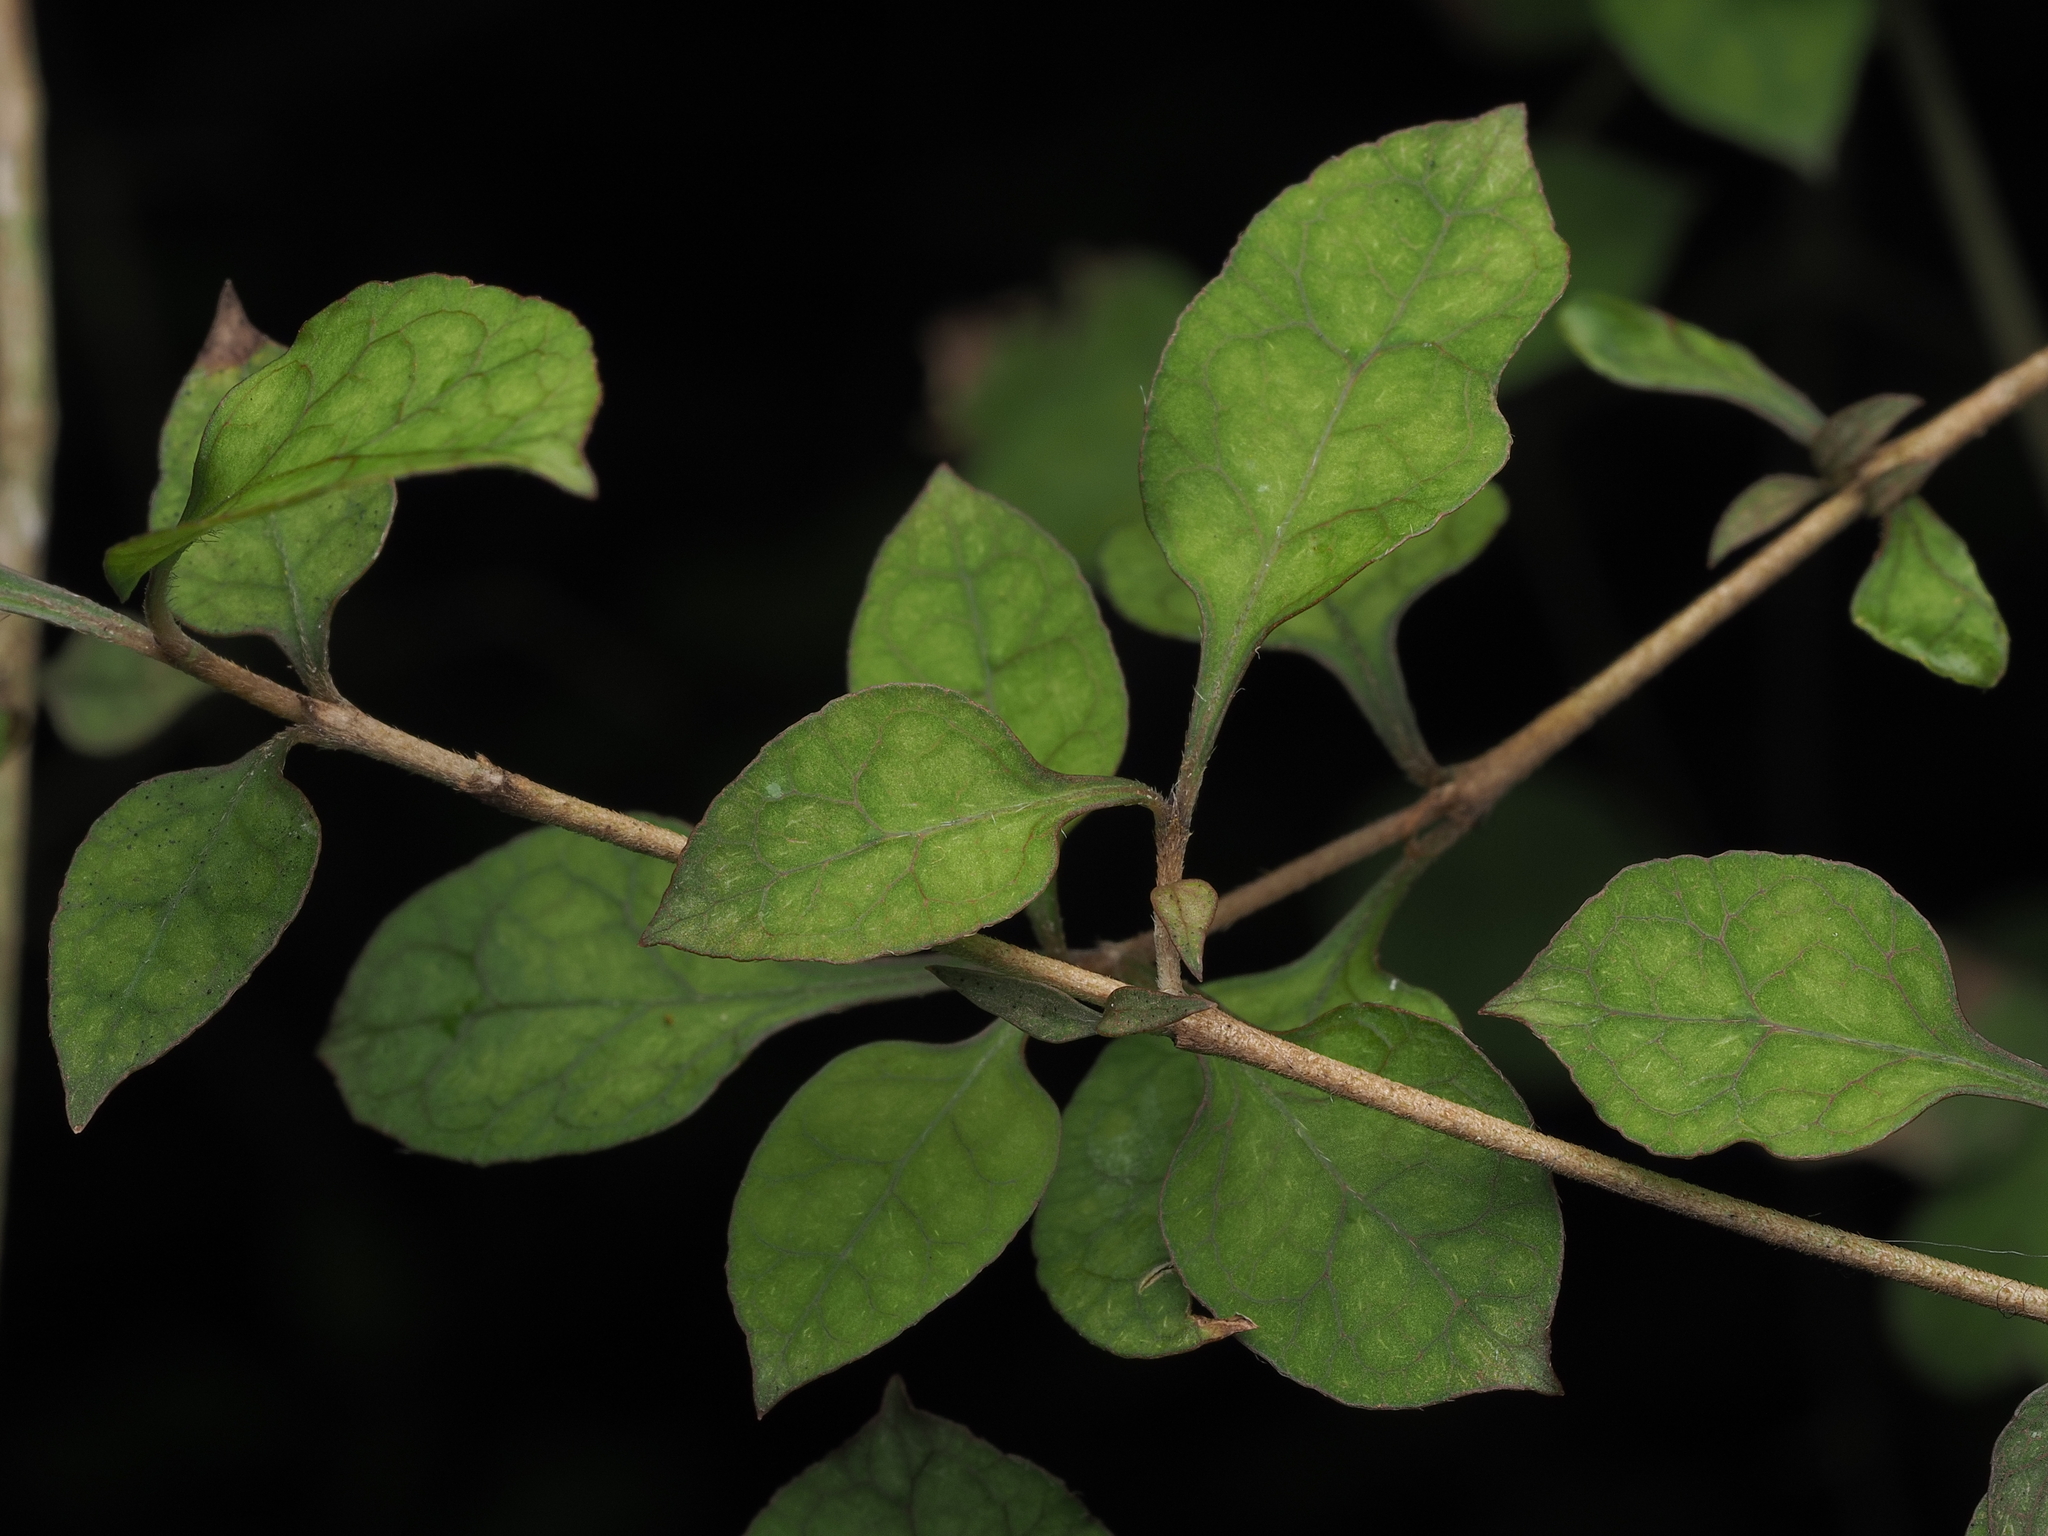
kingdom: Plantae
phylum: Tracheophyta
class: Magnoliopsida
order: Gentianales
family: Rubiaceae
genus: Coprosma
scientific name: Coprosma areolata
